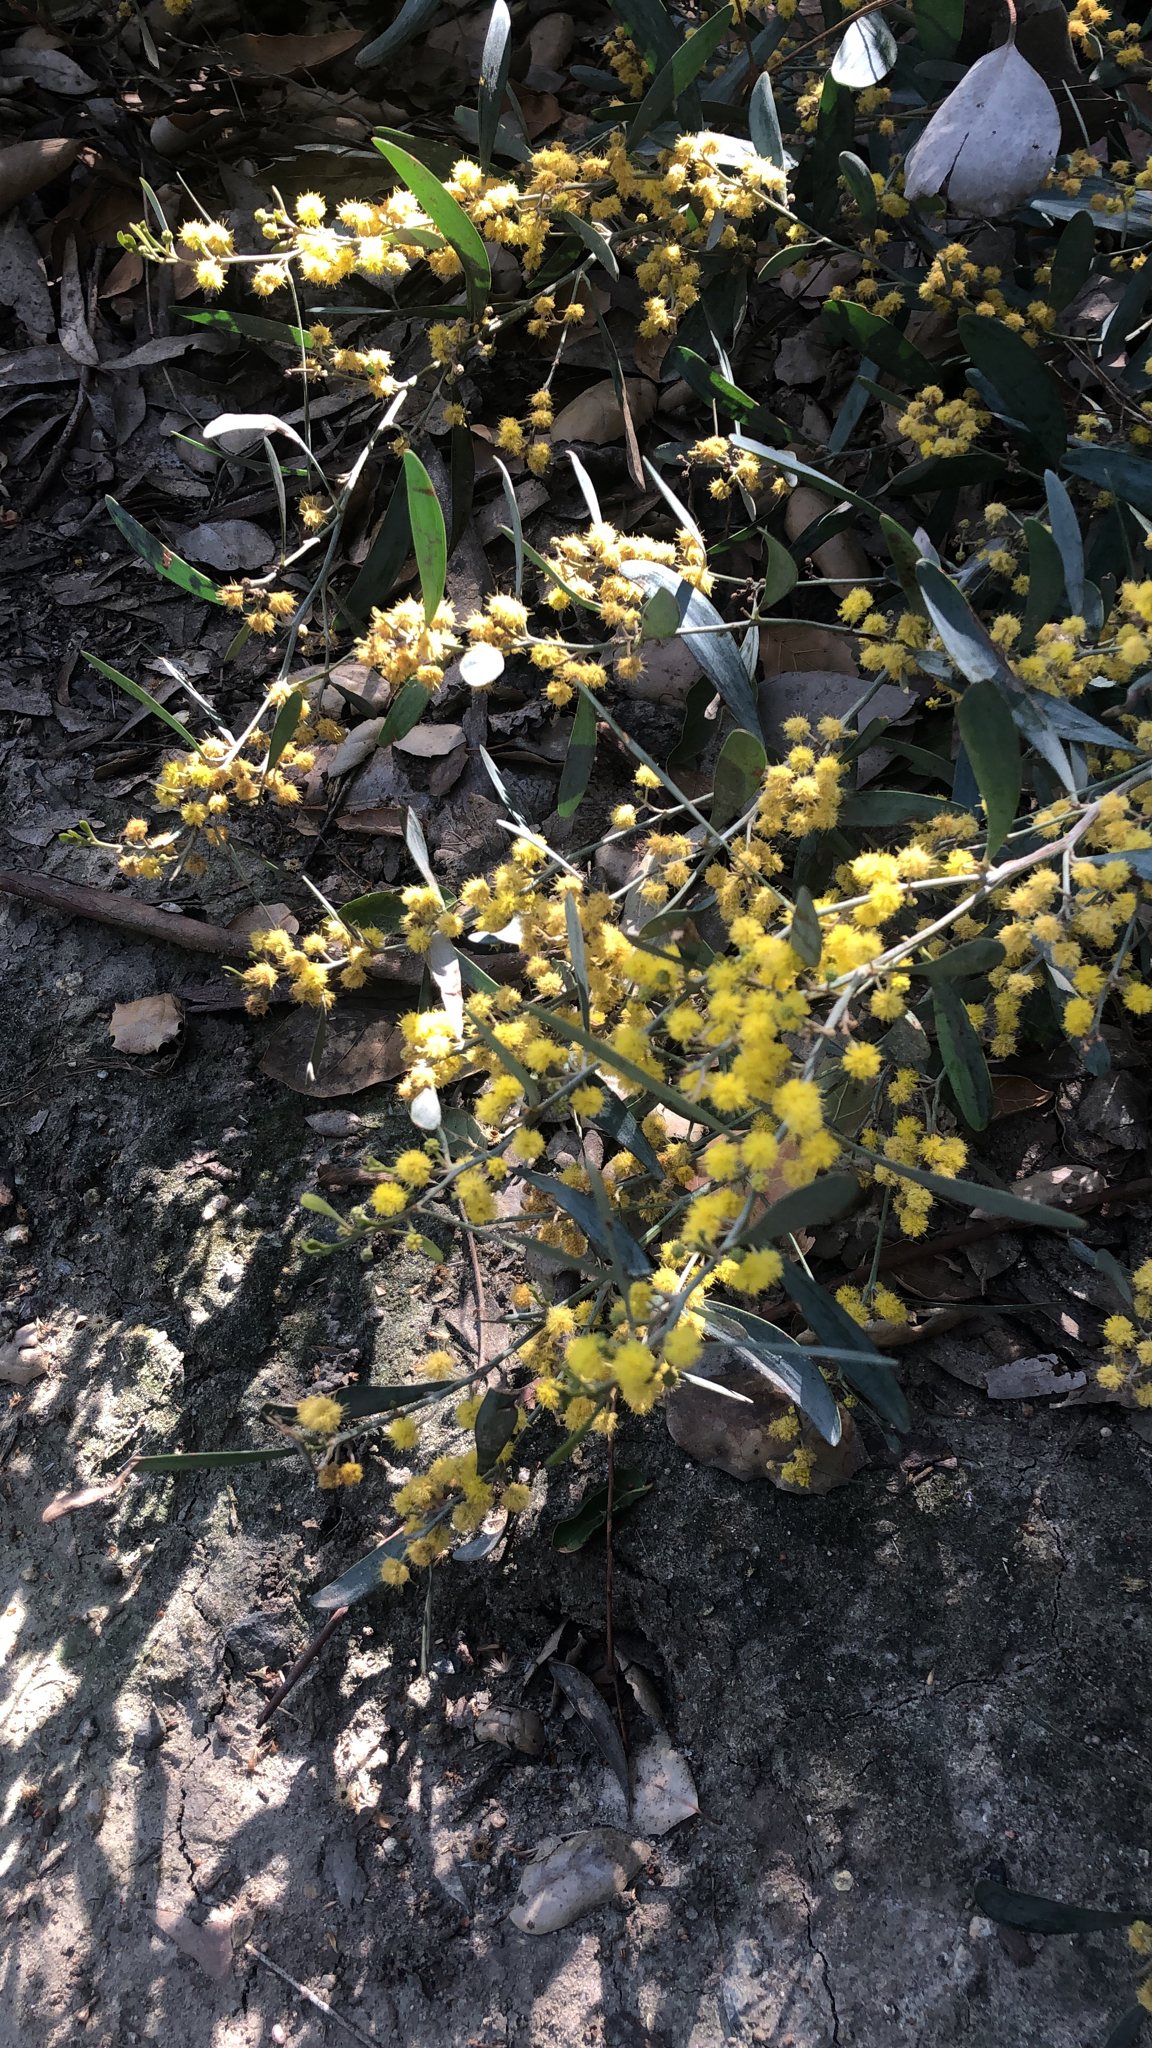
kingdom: Plantae
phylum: Tracheophyta
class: Magnoliopsida
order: Fabales
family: Fabaceae
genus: Acacia
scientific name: Acacia redolens
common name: Bank catclaw
